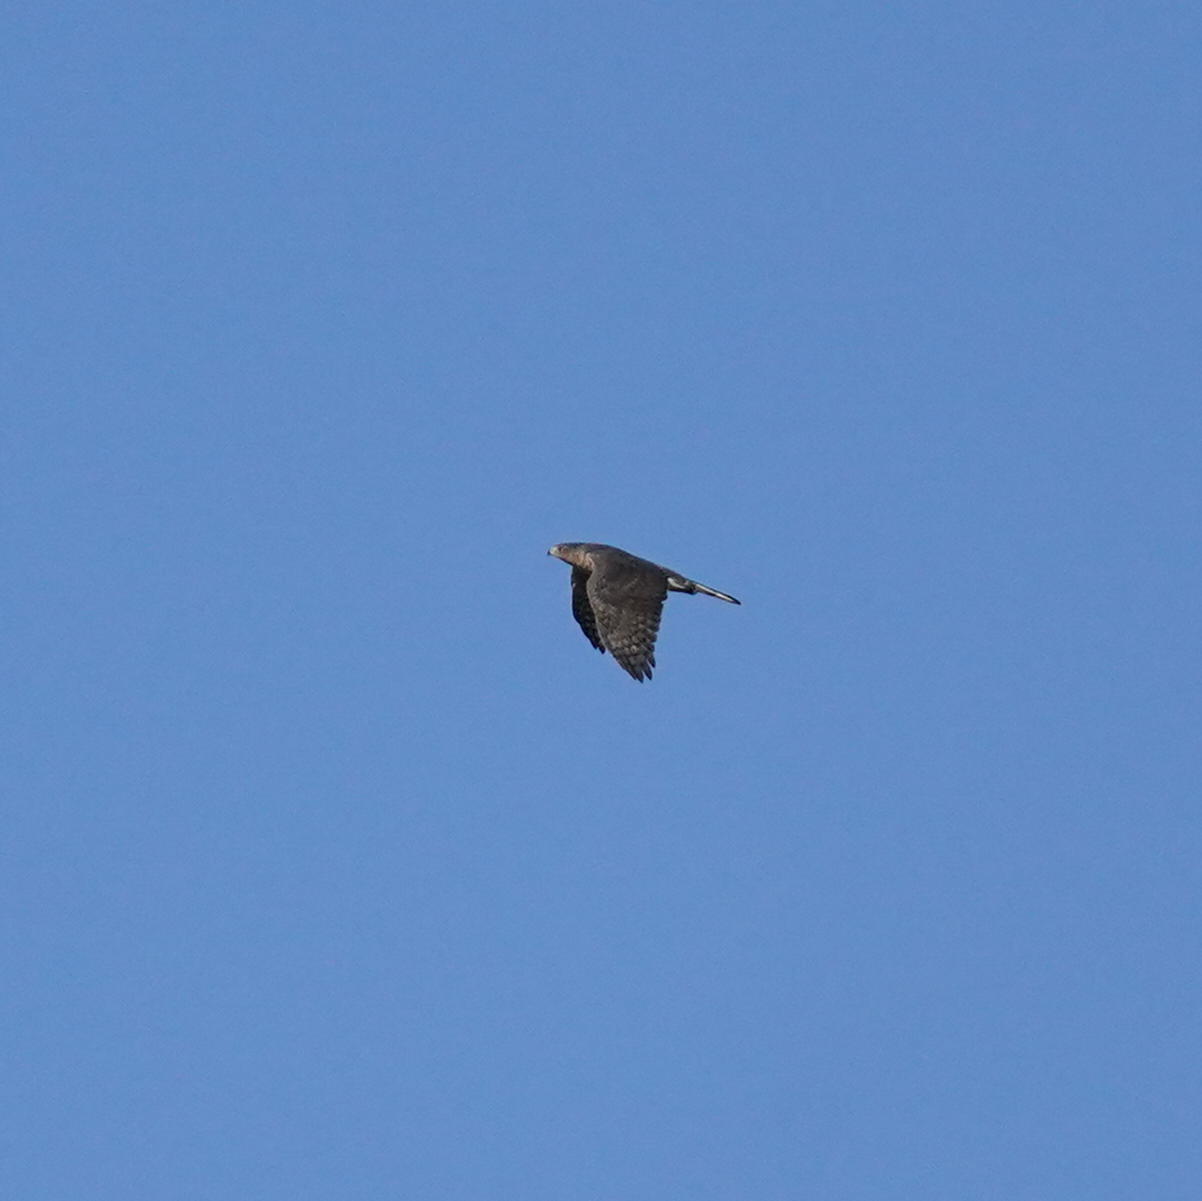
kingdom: Animalia
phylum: Chordata
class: Aves
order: Accipitriformes
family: Accipitridae
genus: Accipiter
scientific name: Accipiter cooperii
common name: Cooper's hawk
